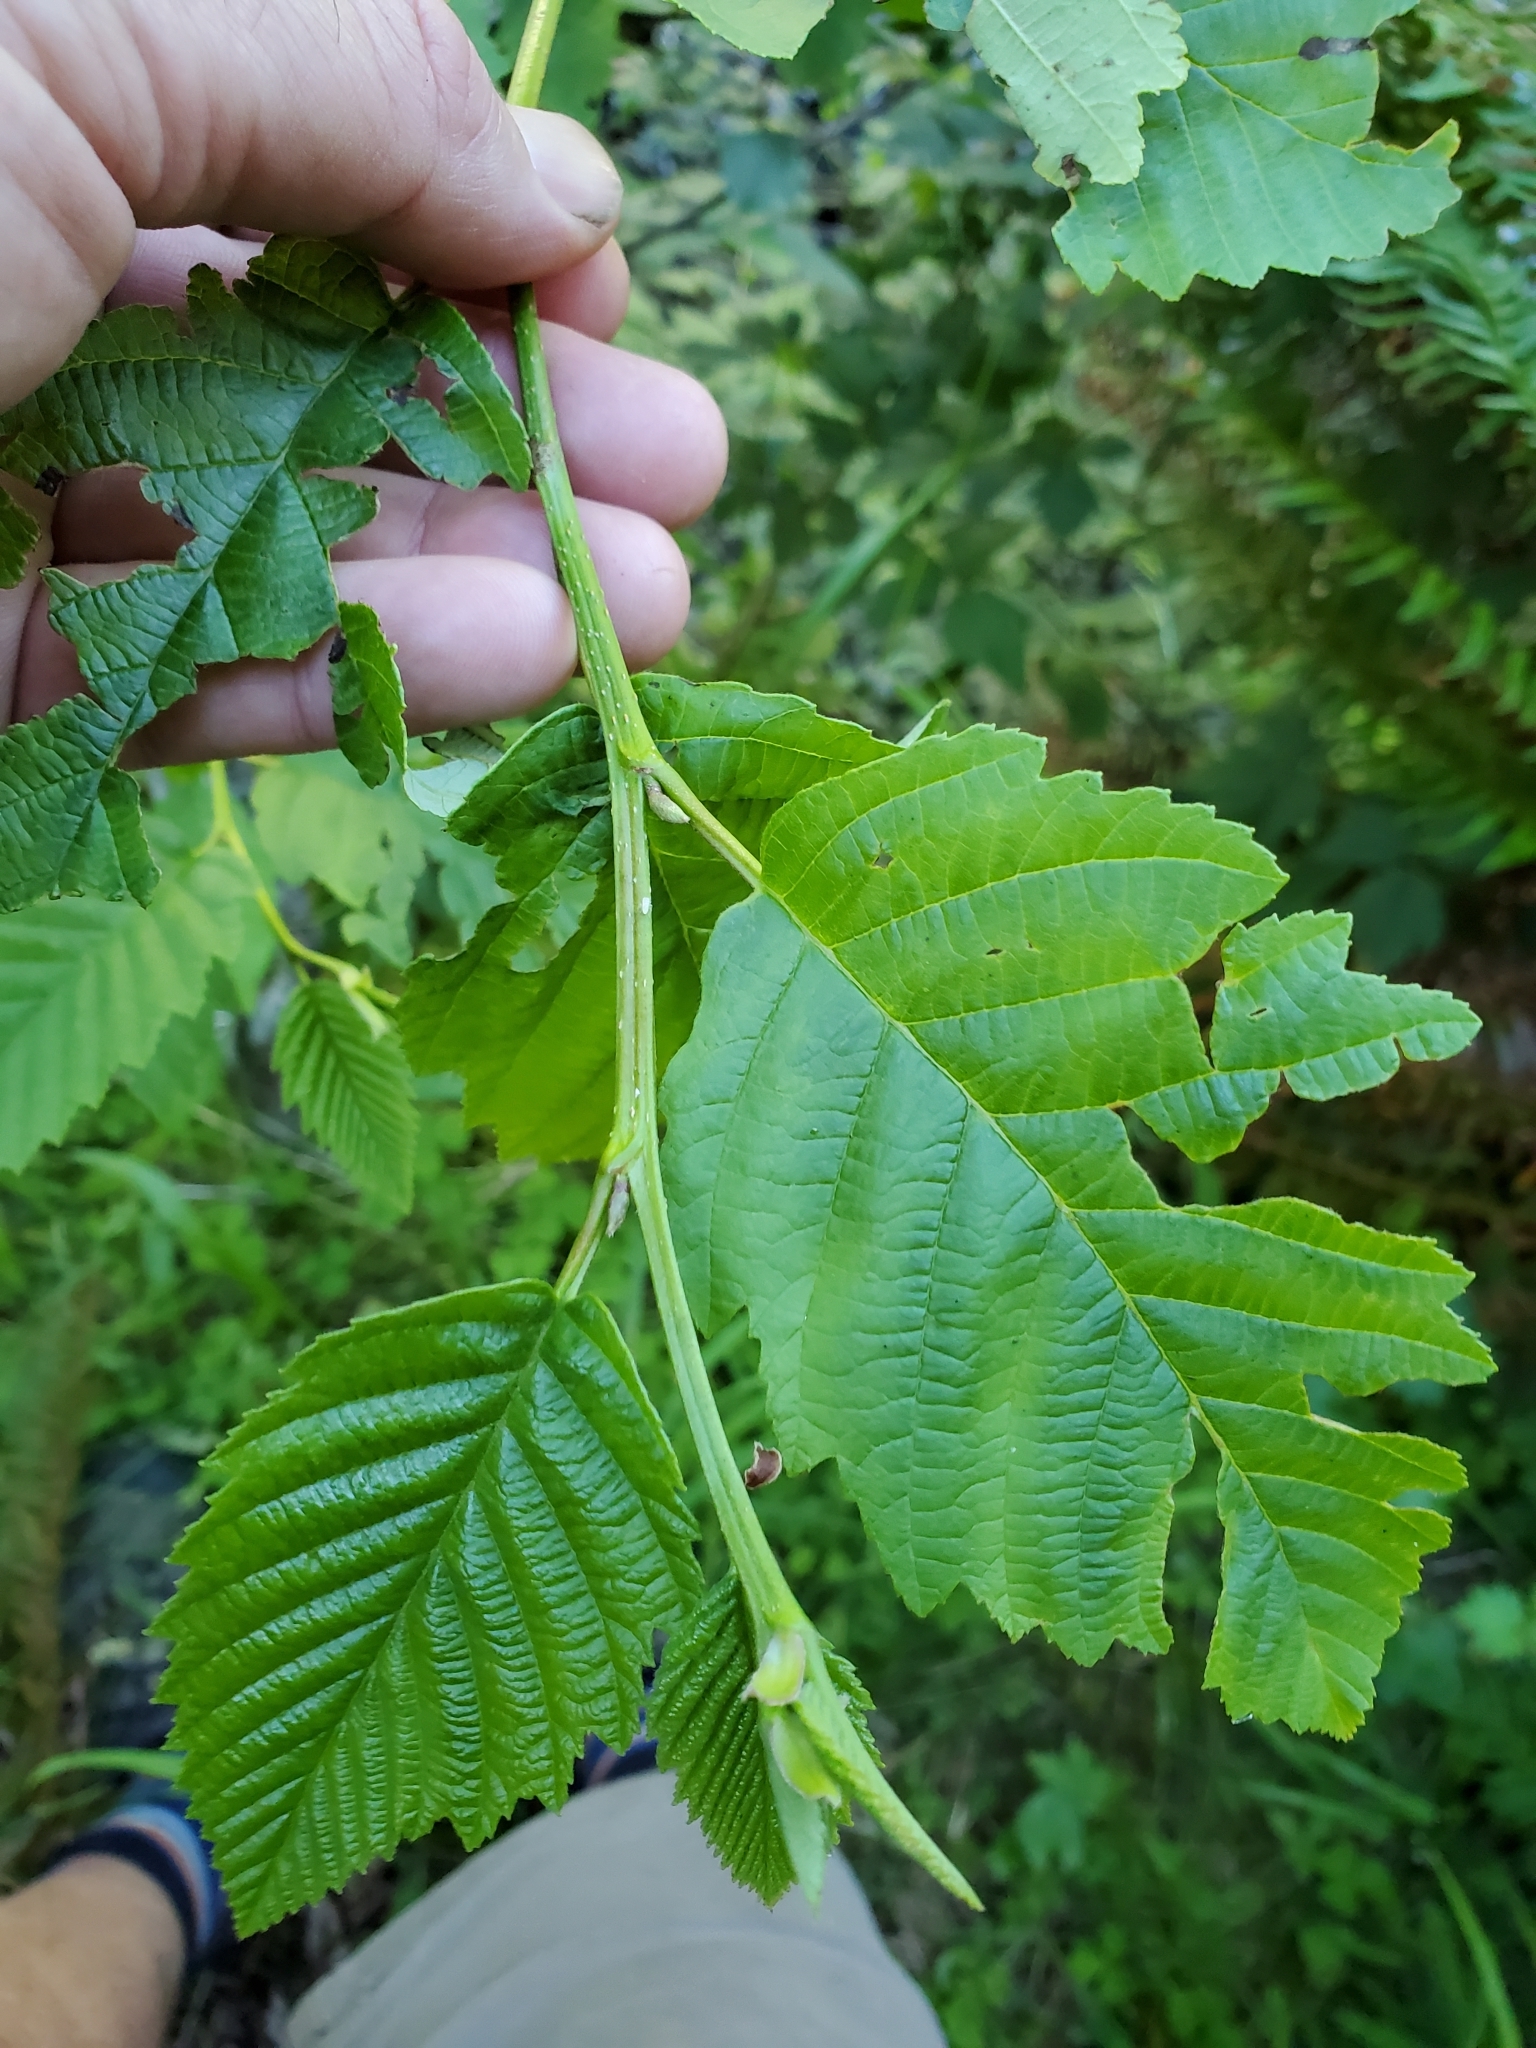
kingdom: Plantae
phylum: Tracheophyta
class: Magnoliopsida
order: Fagales
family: Betulaceae
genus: Alnus
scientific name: Alnus rubra
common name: Red alder
